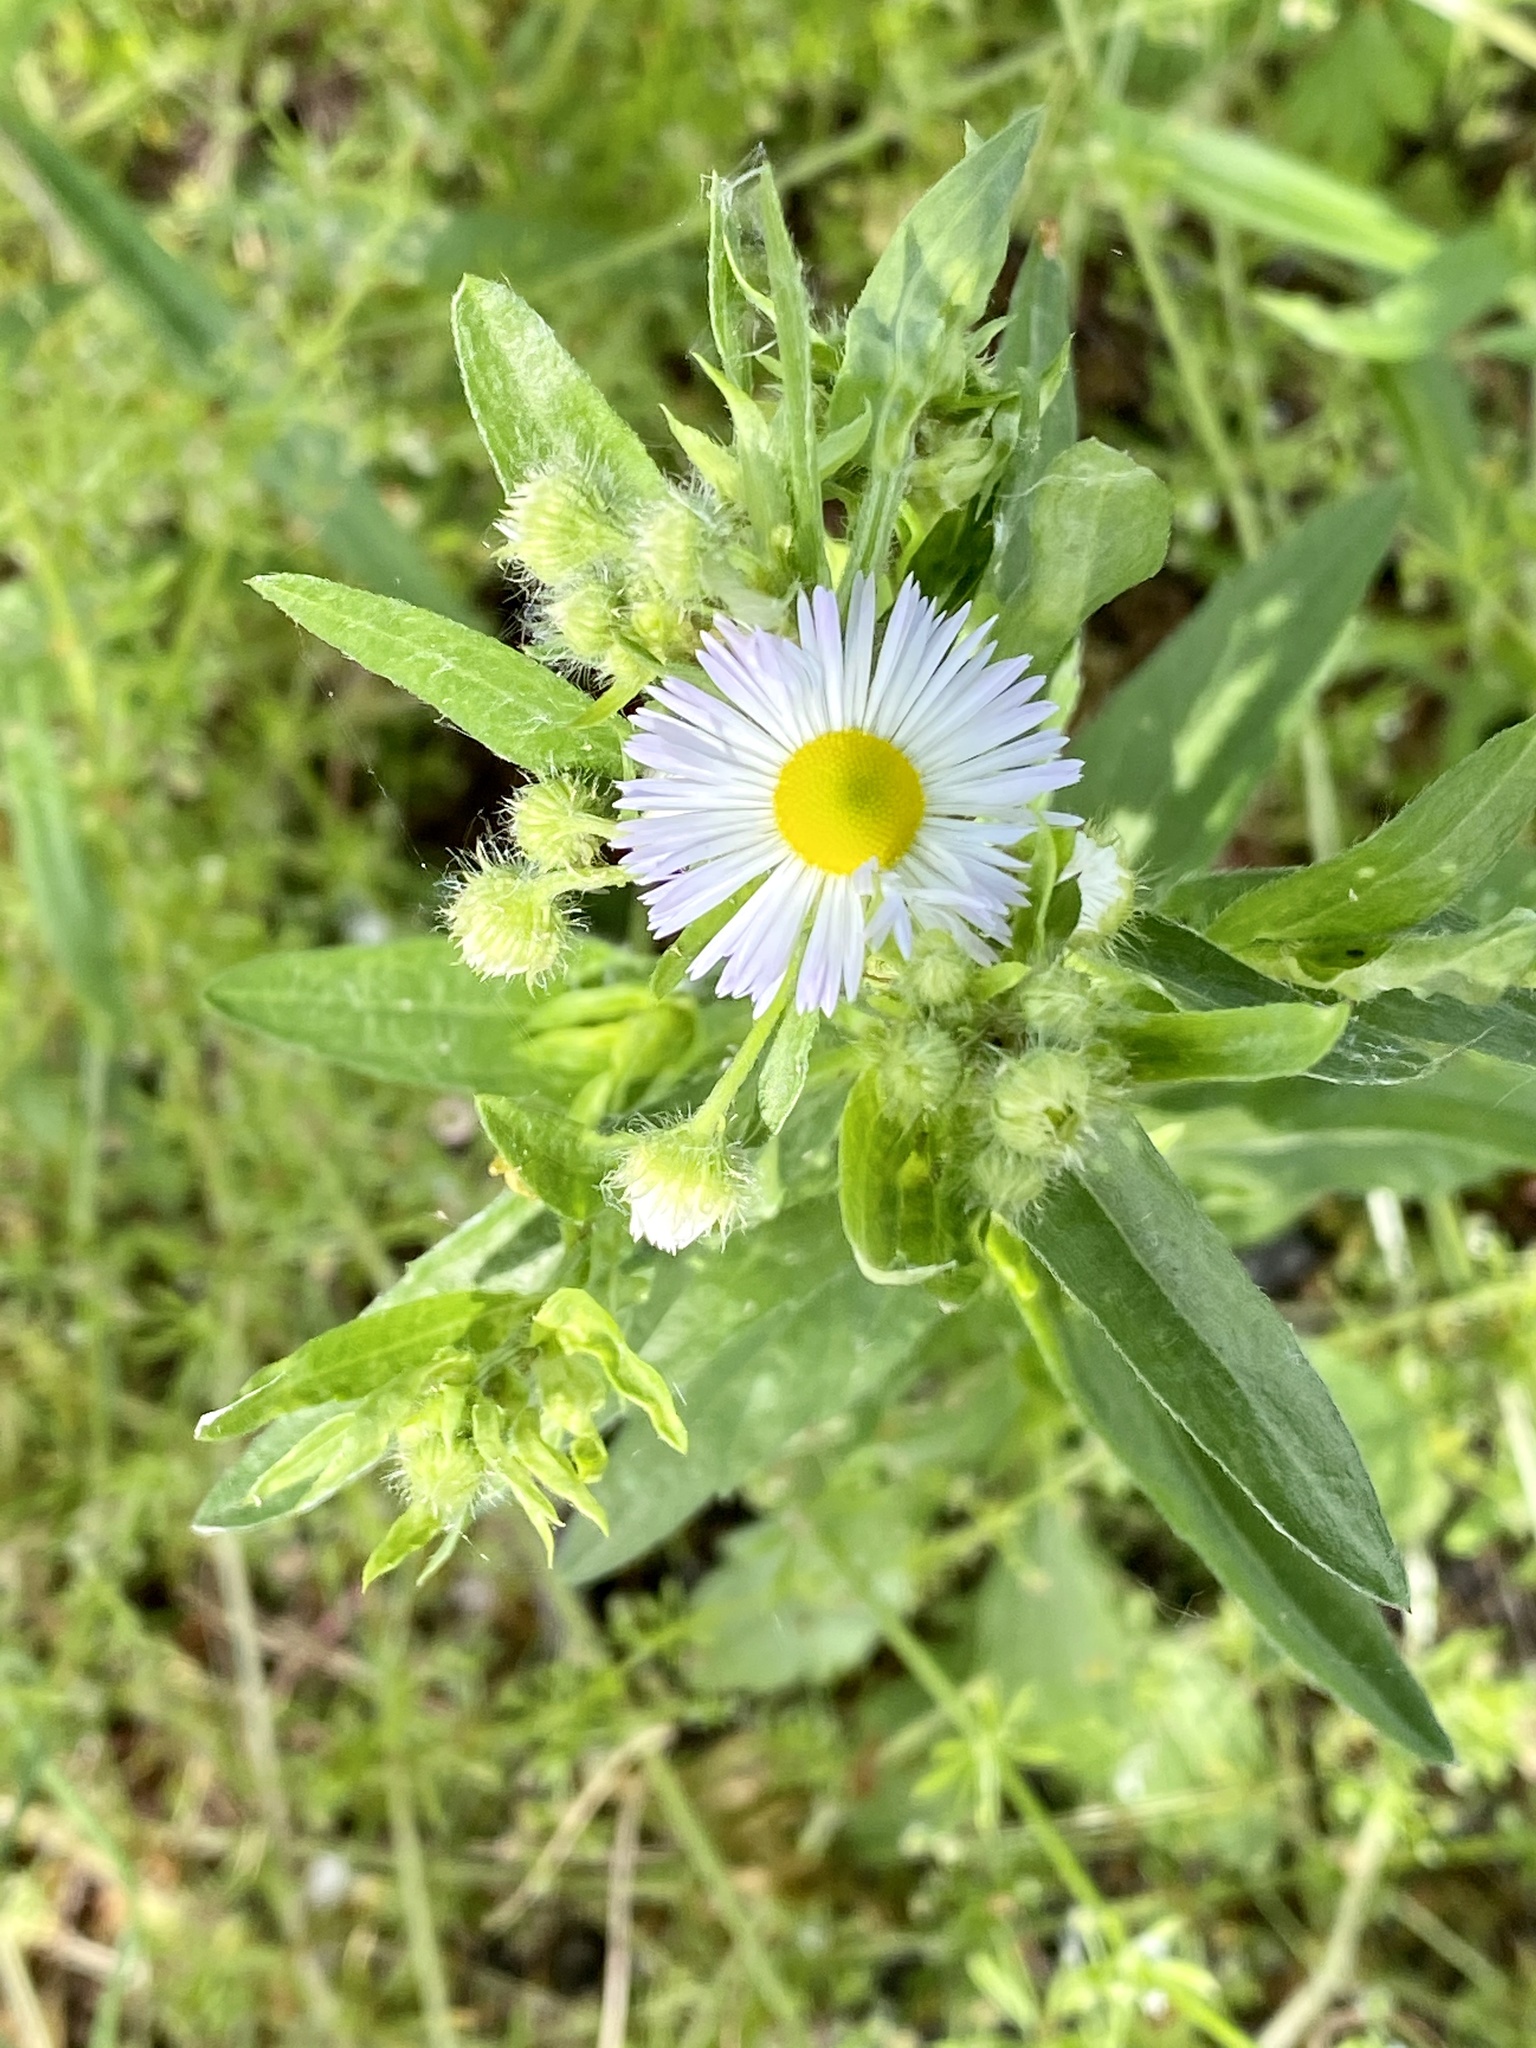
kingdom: Plantae
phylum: Tracheophyta
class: Magnoliopsida
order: Asterales
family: Asteraceae
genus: Erigeron
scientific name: Erigeron annuus
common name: Tall fleabane
